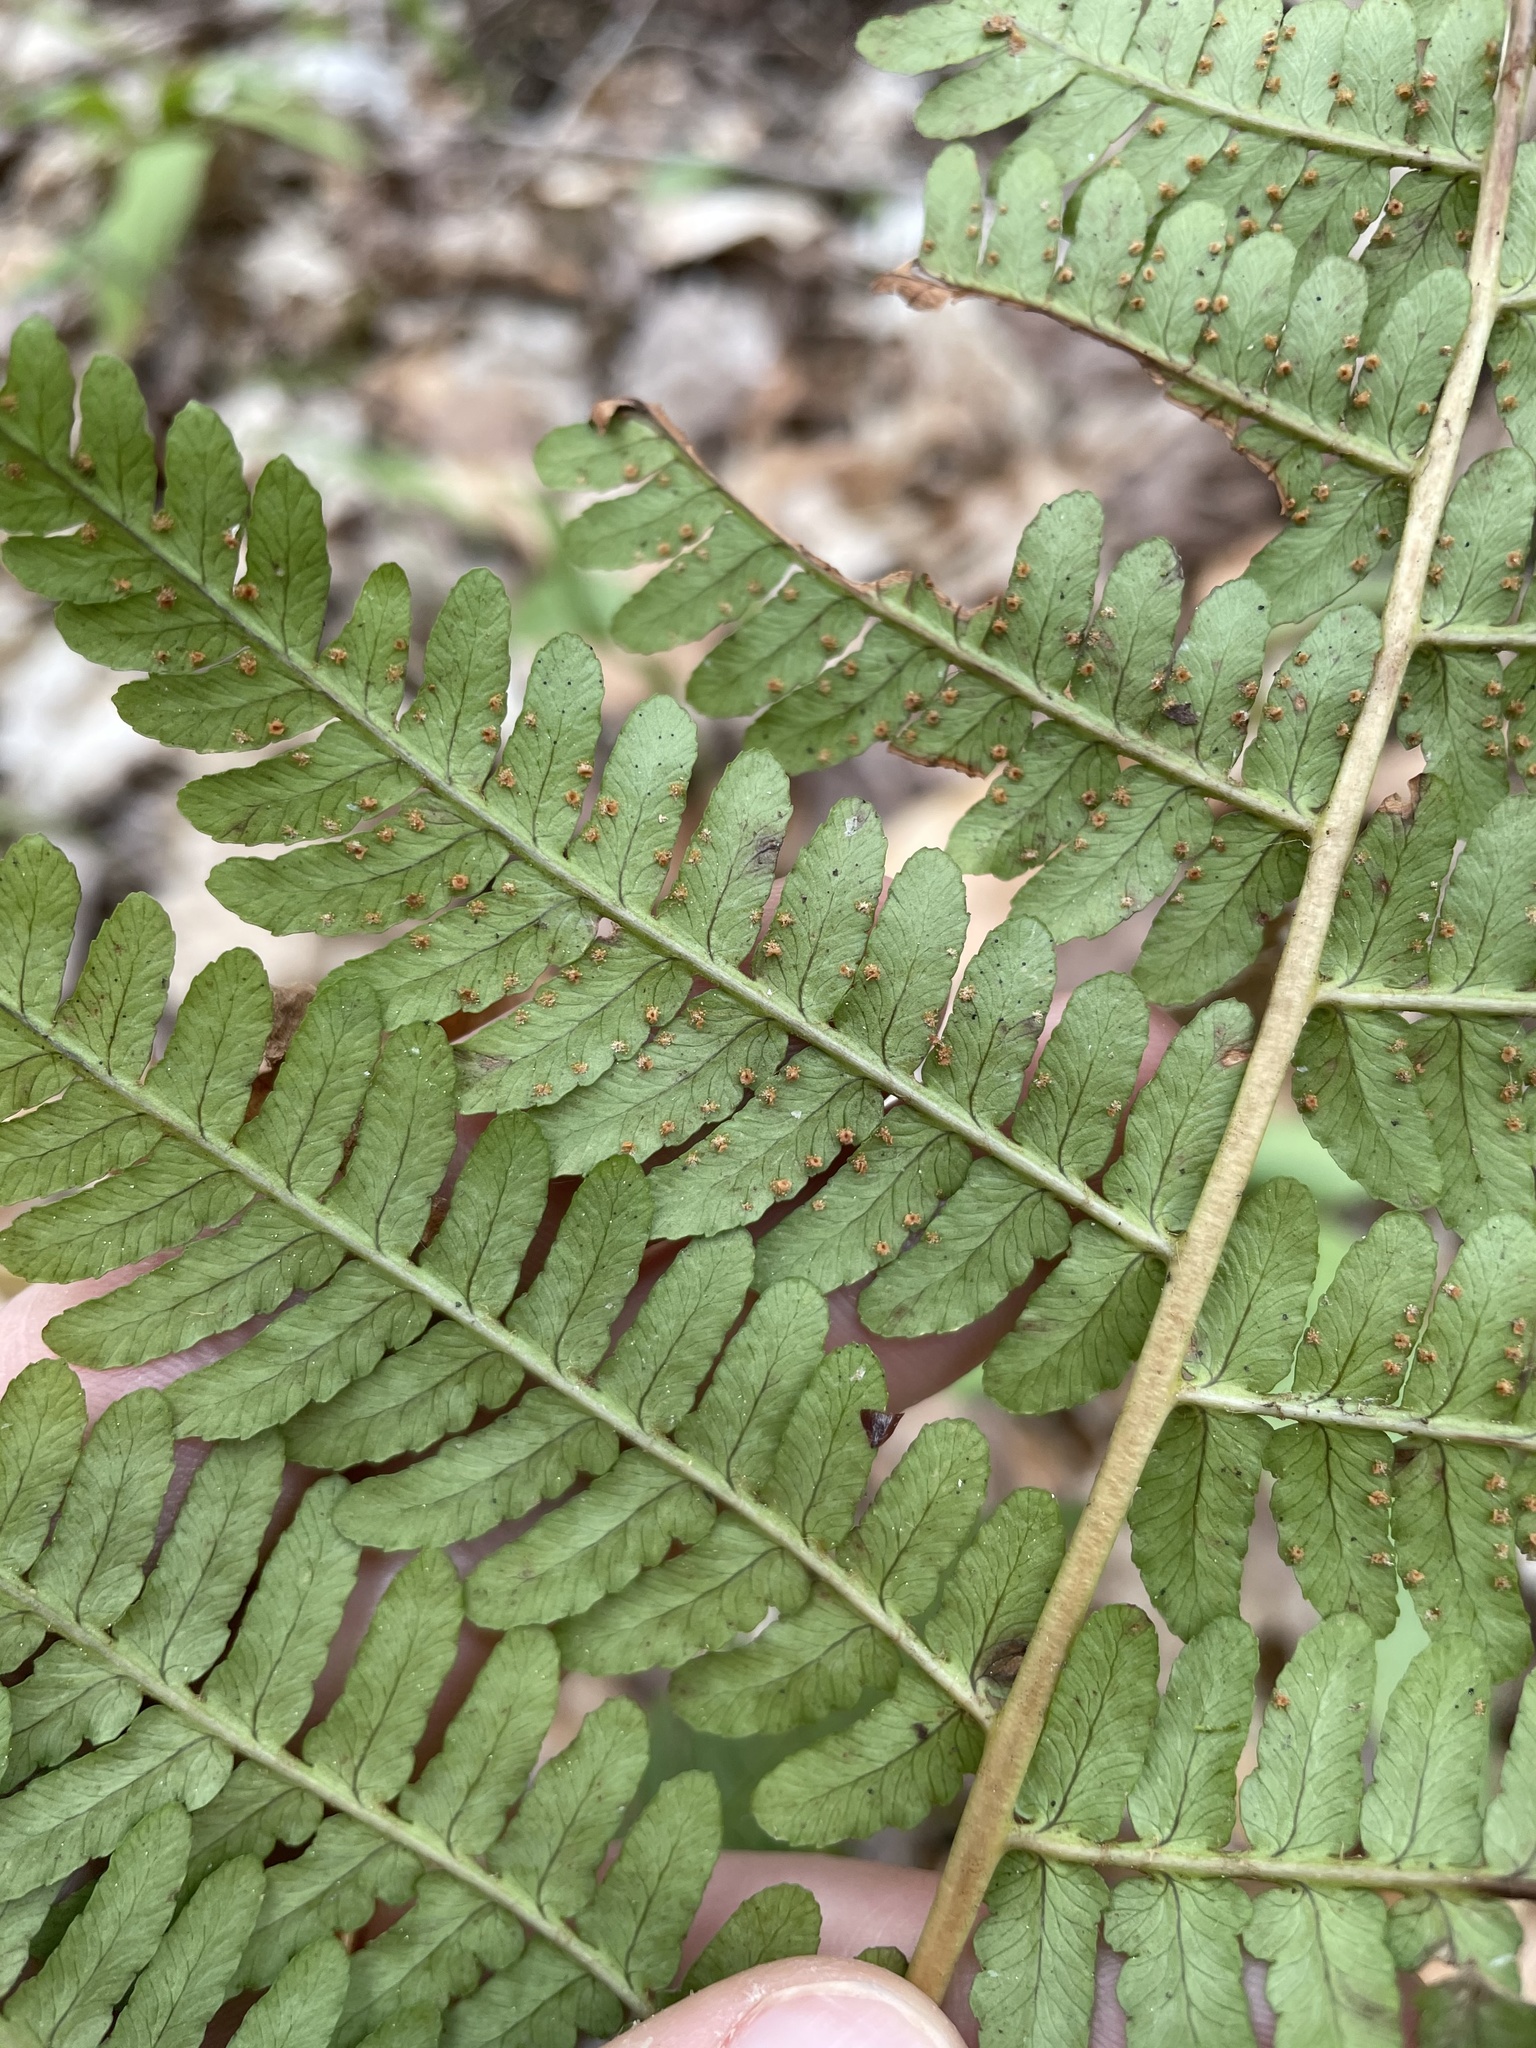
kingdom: Plantae
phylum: Tracheophyta
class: Polypodiopsida
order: Polypodiales
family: Dryopteridaceae
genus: Dryopteris
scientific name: Dryopteris marginalis
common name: Marginal wood fern
